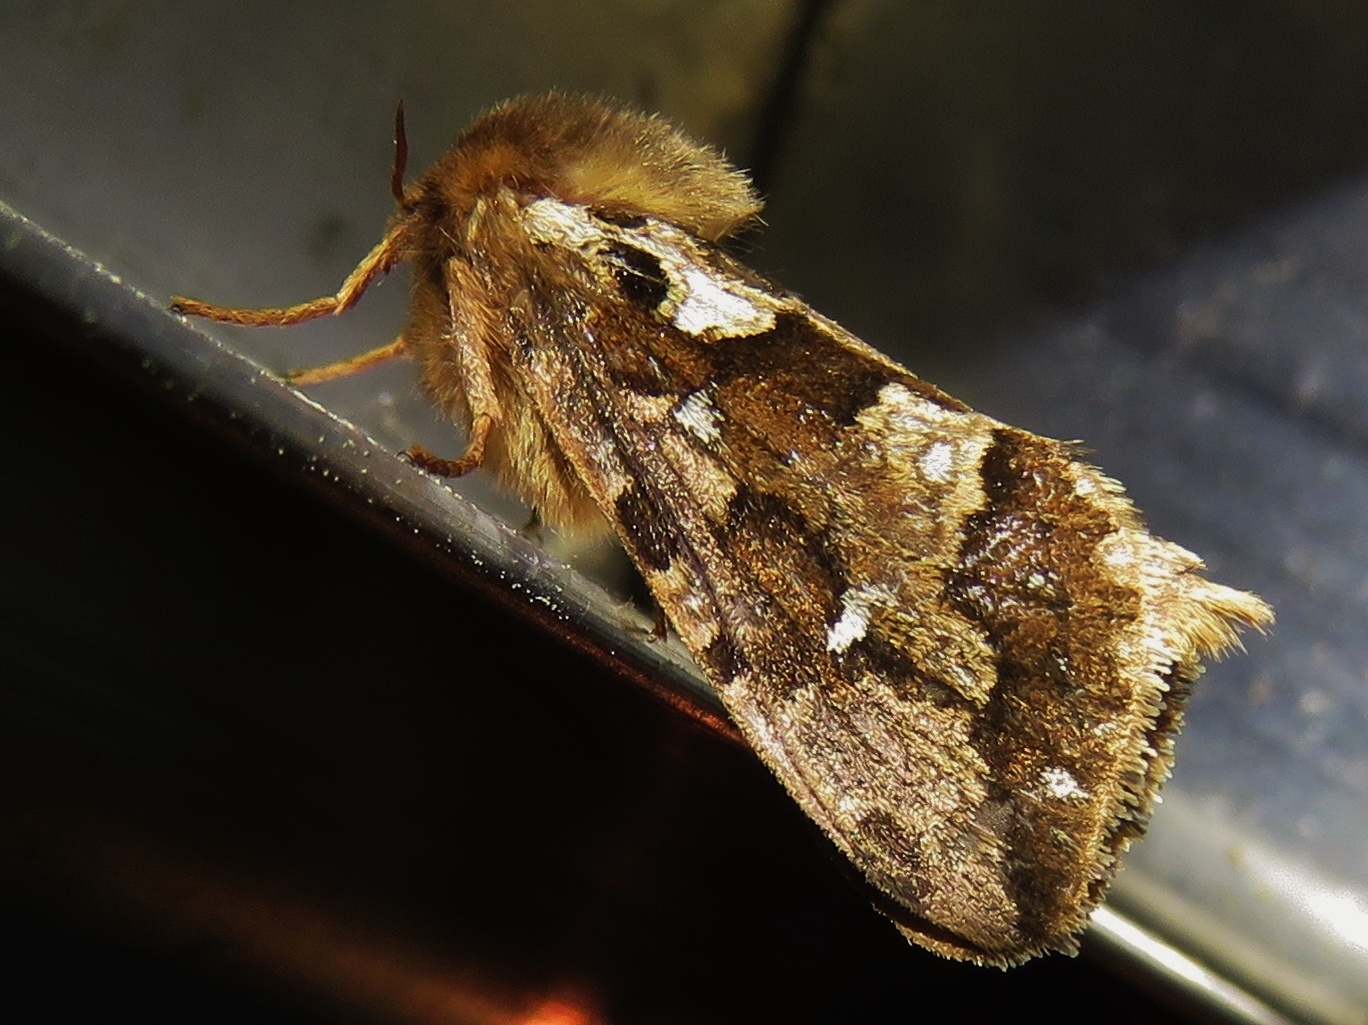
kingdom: Animalia
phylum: Arthropoda
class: Insecta
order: Lepidoptera
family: Hepialidae
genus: Korscheltellus
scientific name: Korscheltellus fusconebulosus
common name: Map-winged swift
